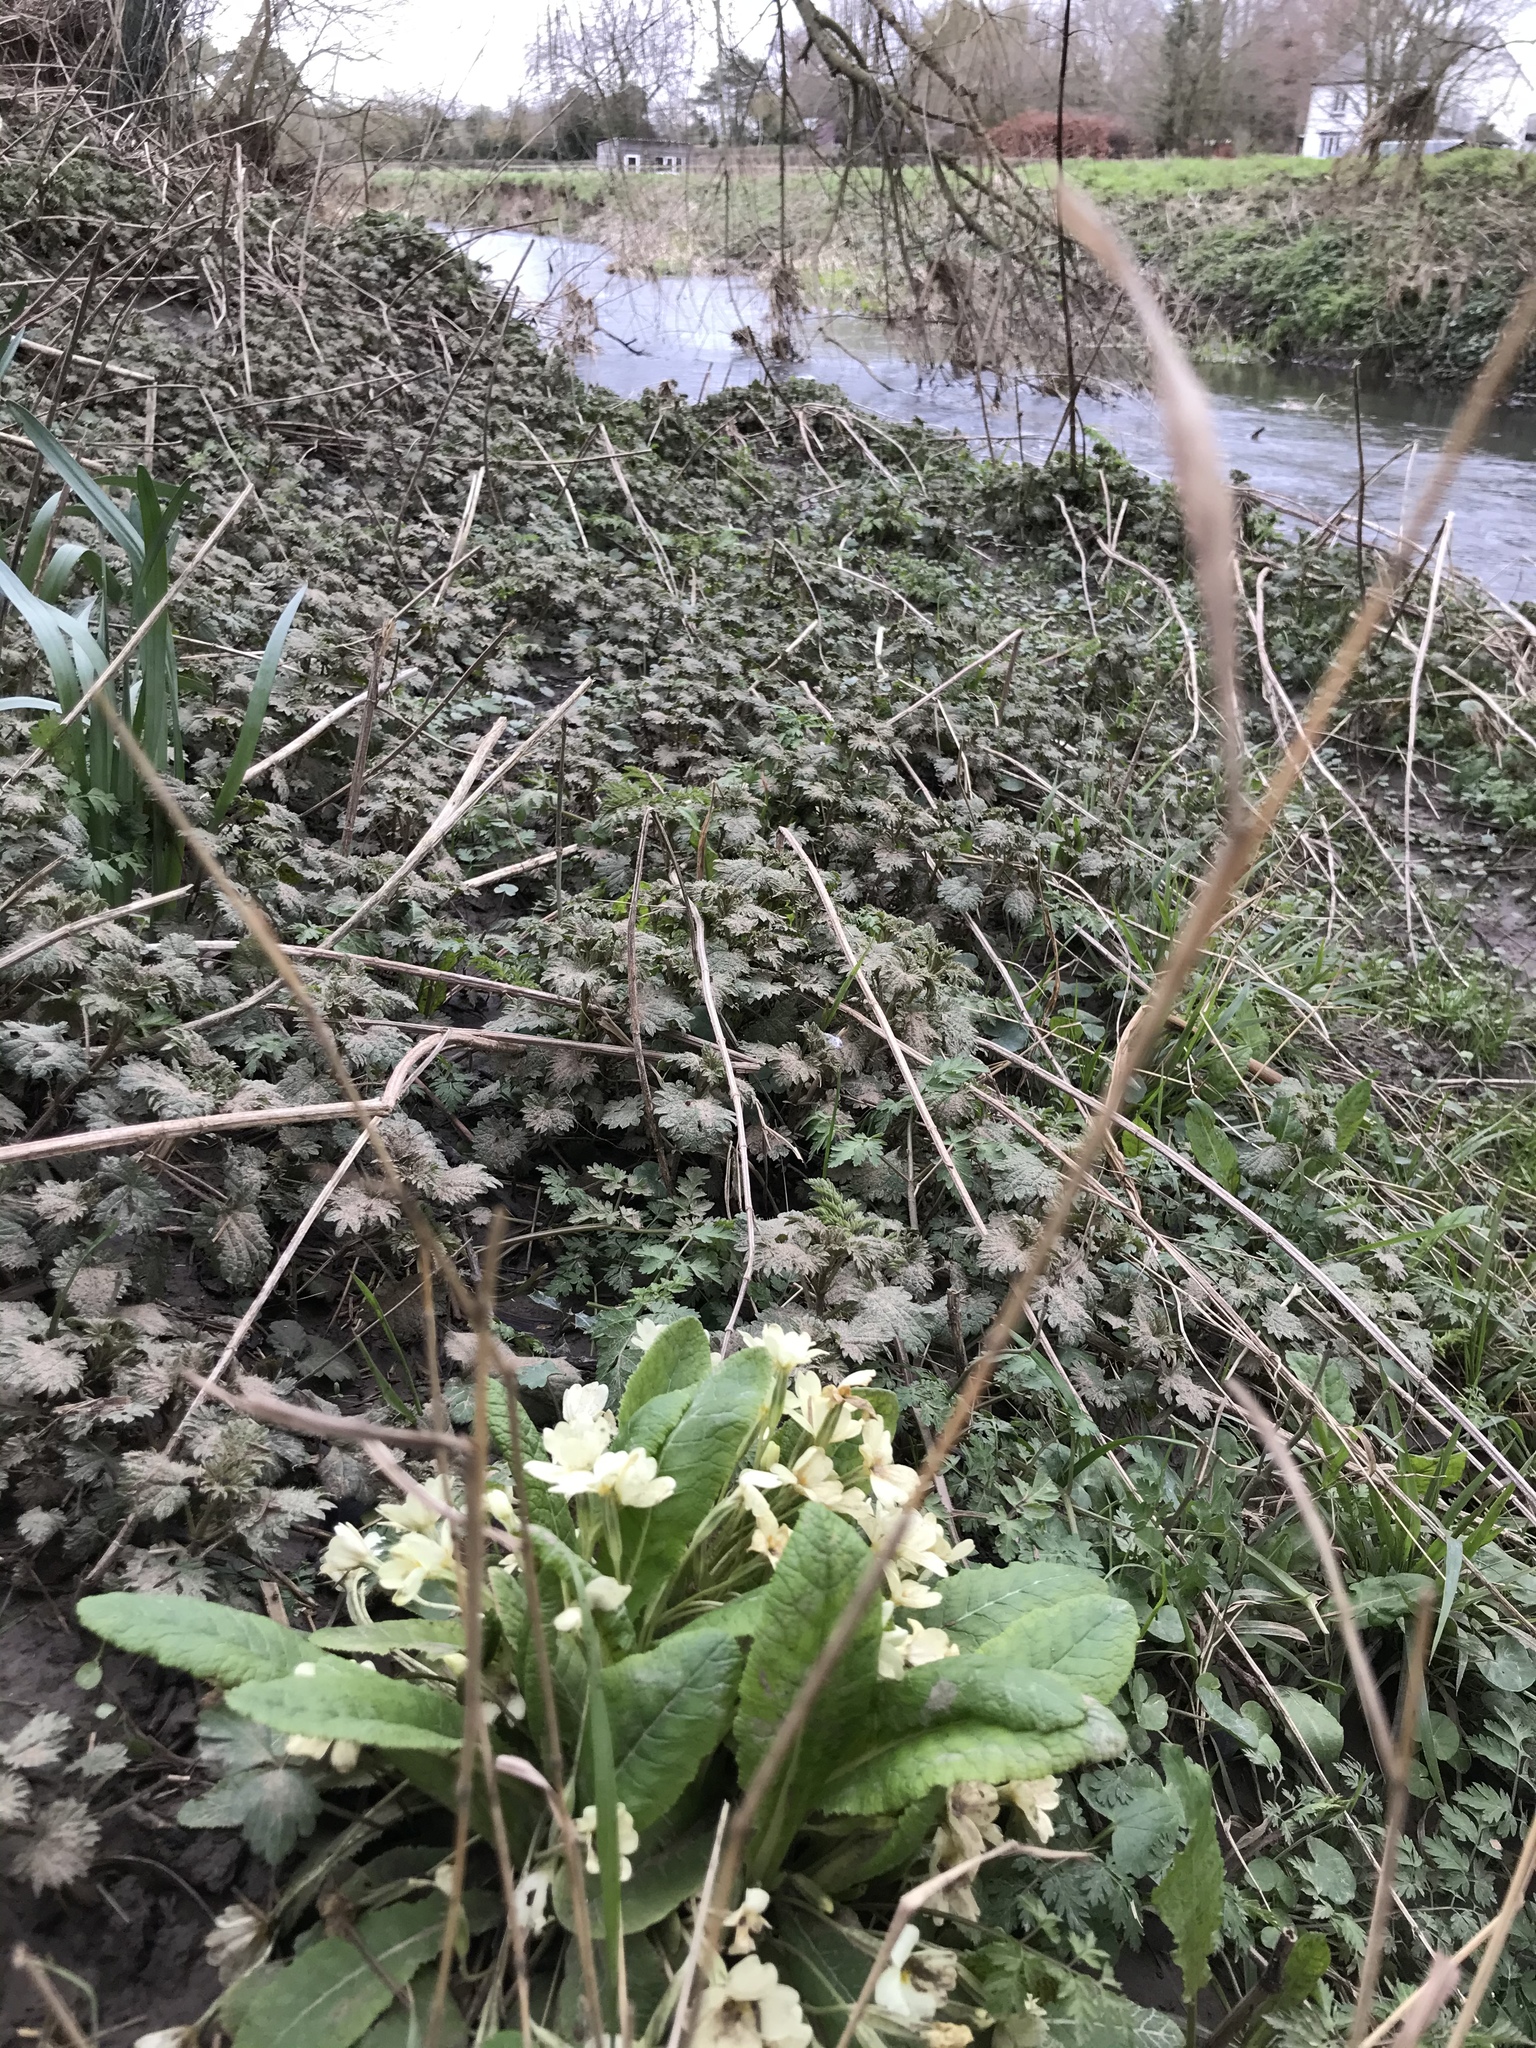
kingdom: Plantae
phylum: Tracheophyta
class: Magnoliopsida
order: Ericales
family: Primulaceae
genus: Primula
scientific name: Primula vulgaris
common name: Primrose
